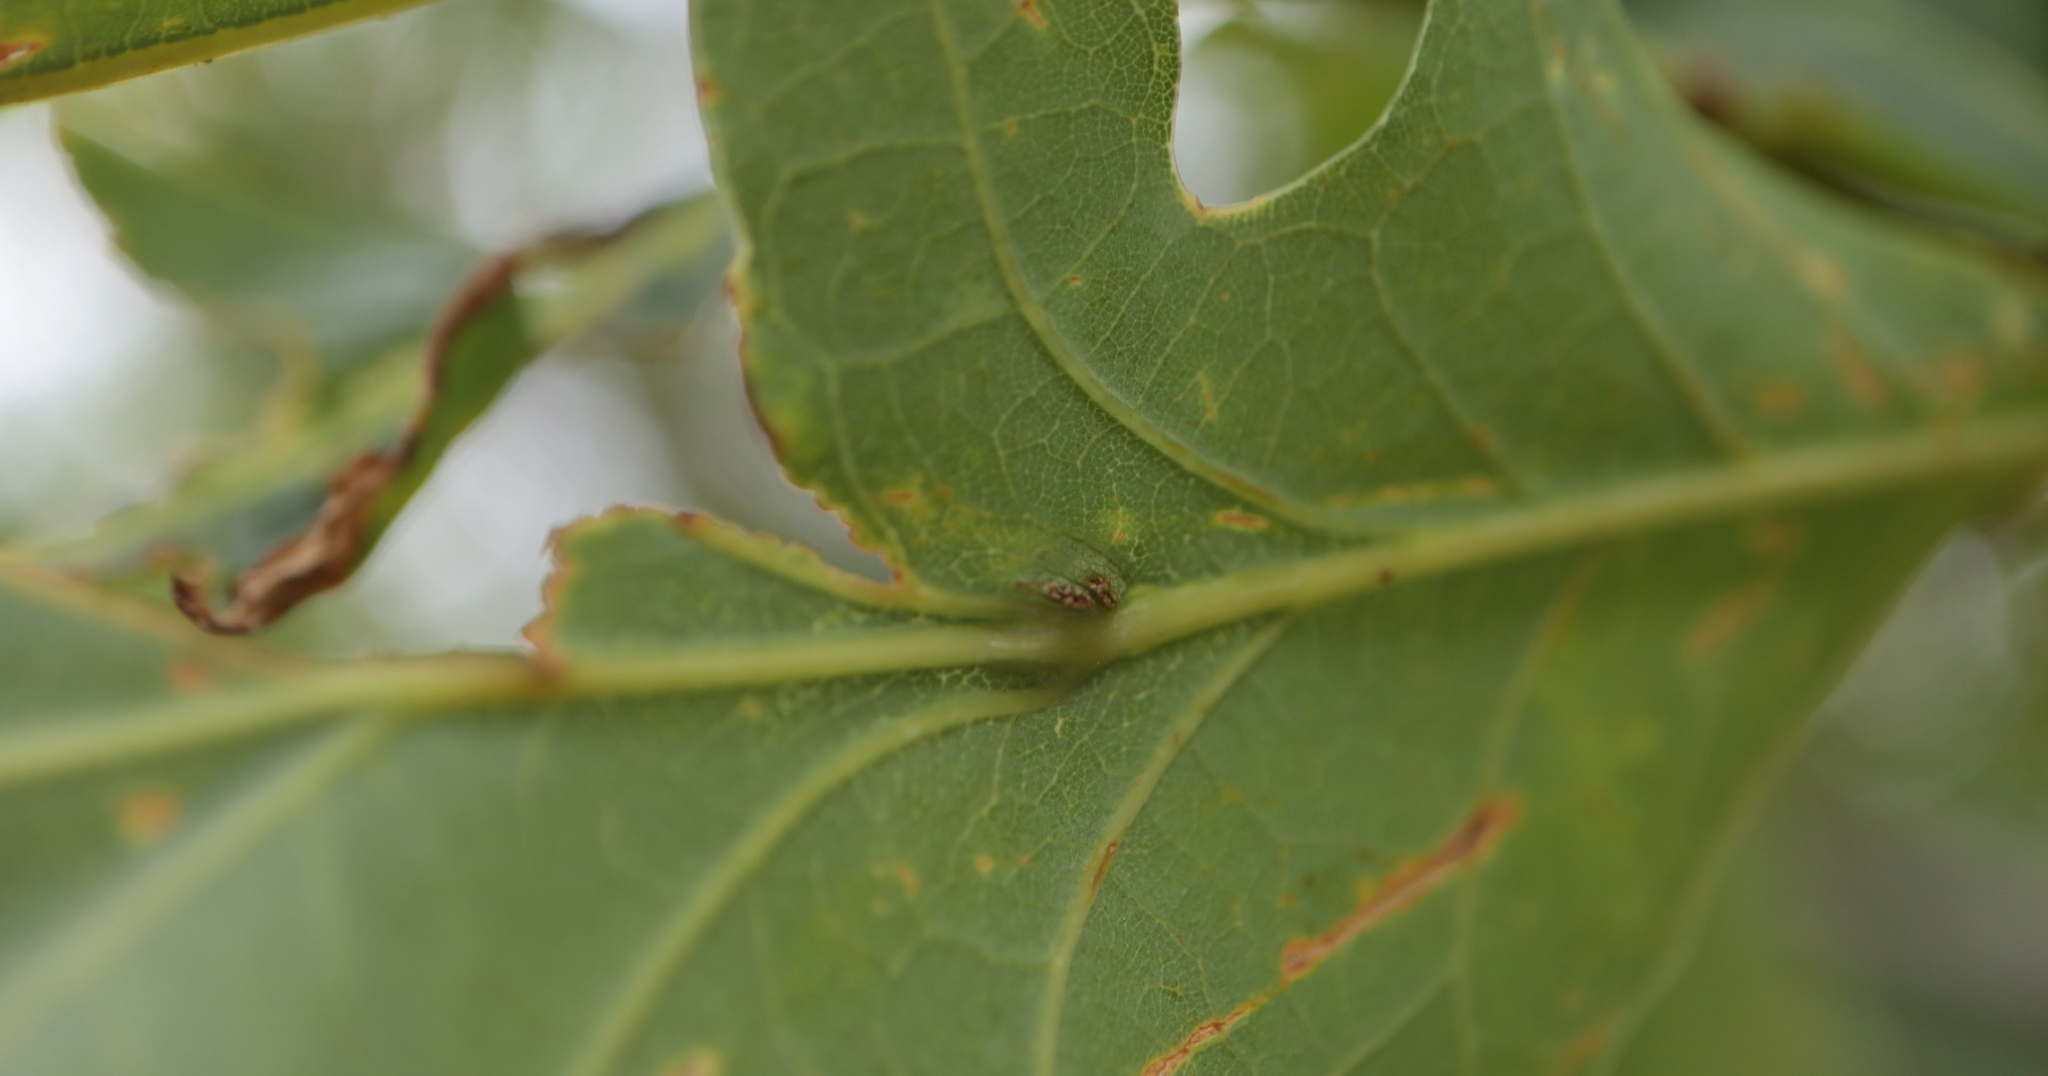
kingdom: Animalia
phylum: Arthropoda
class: Insecta
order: Hymenoptera
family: Cynipidae
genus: Andricus
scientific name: Andricus
